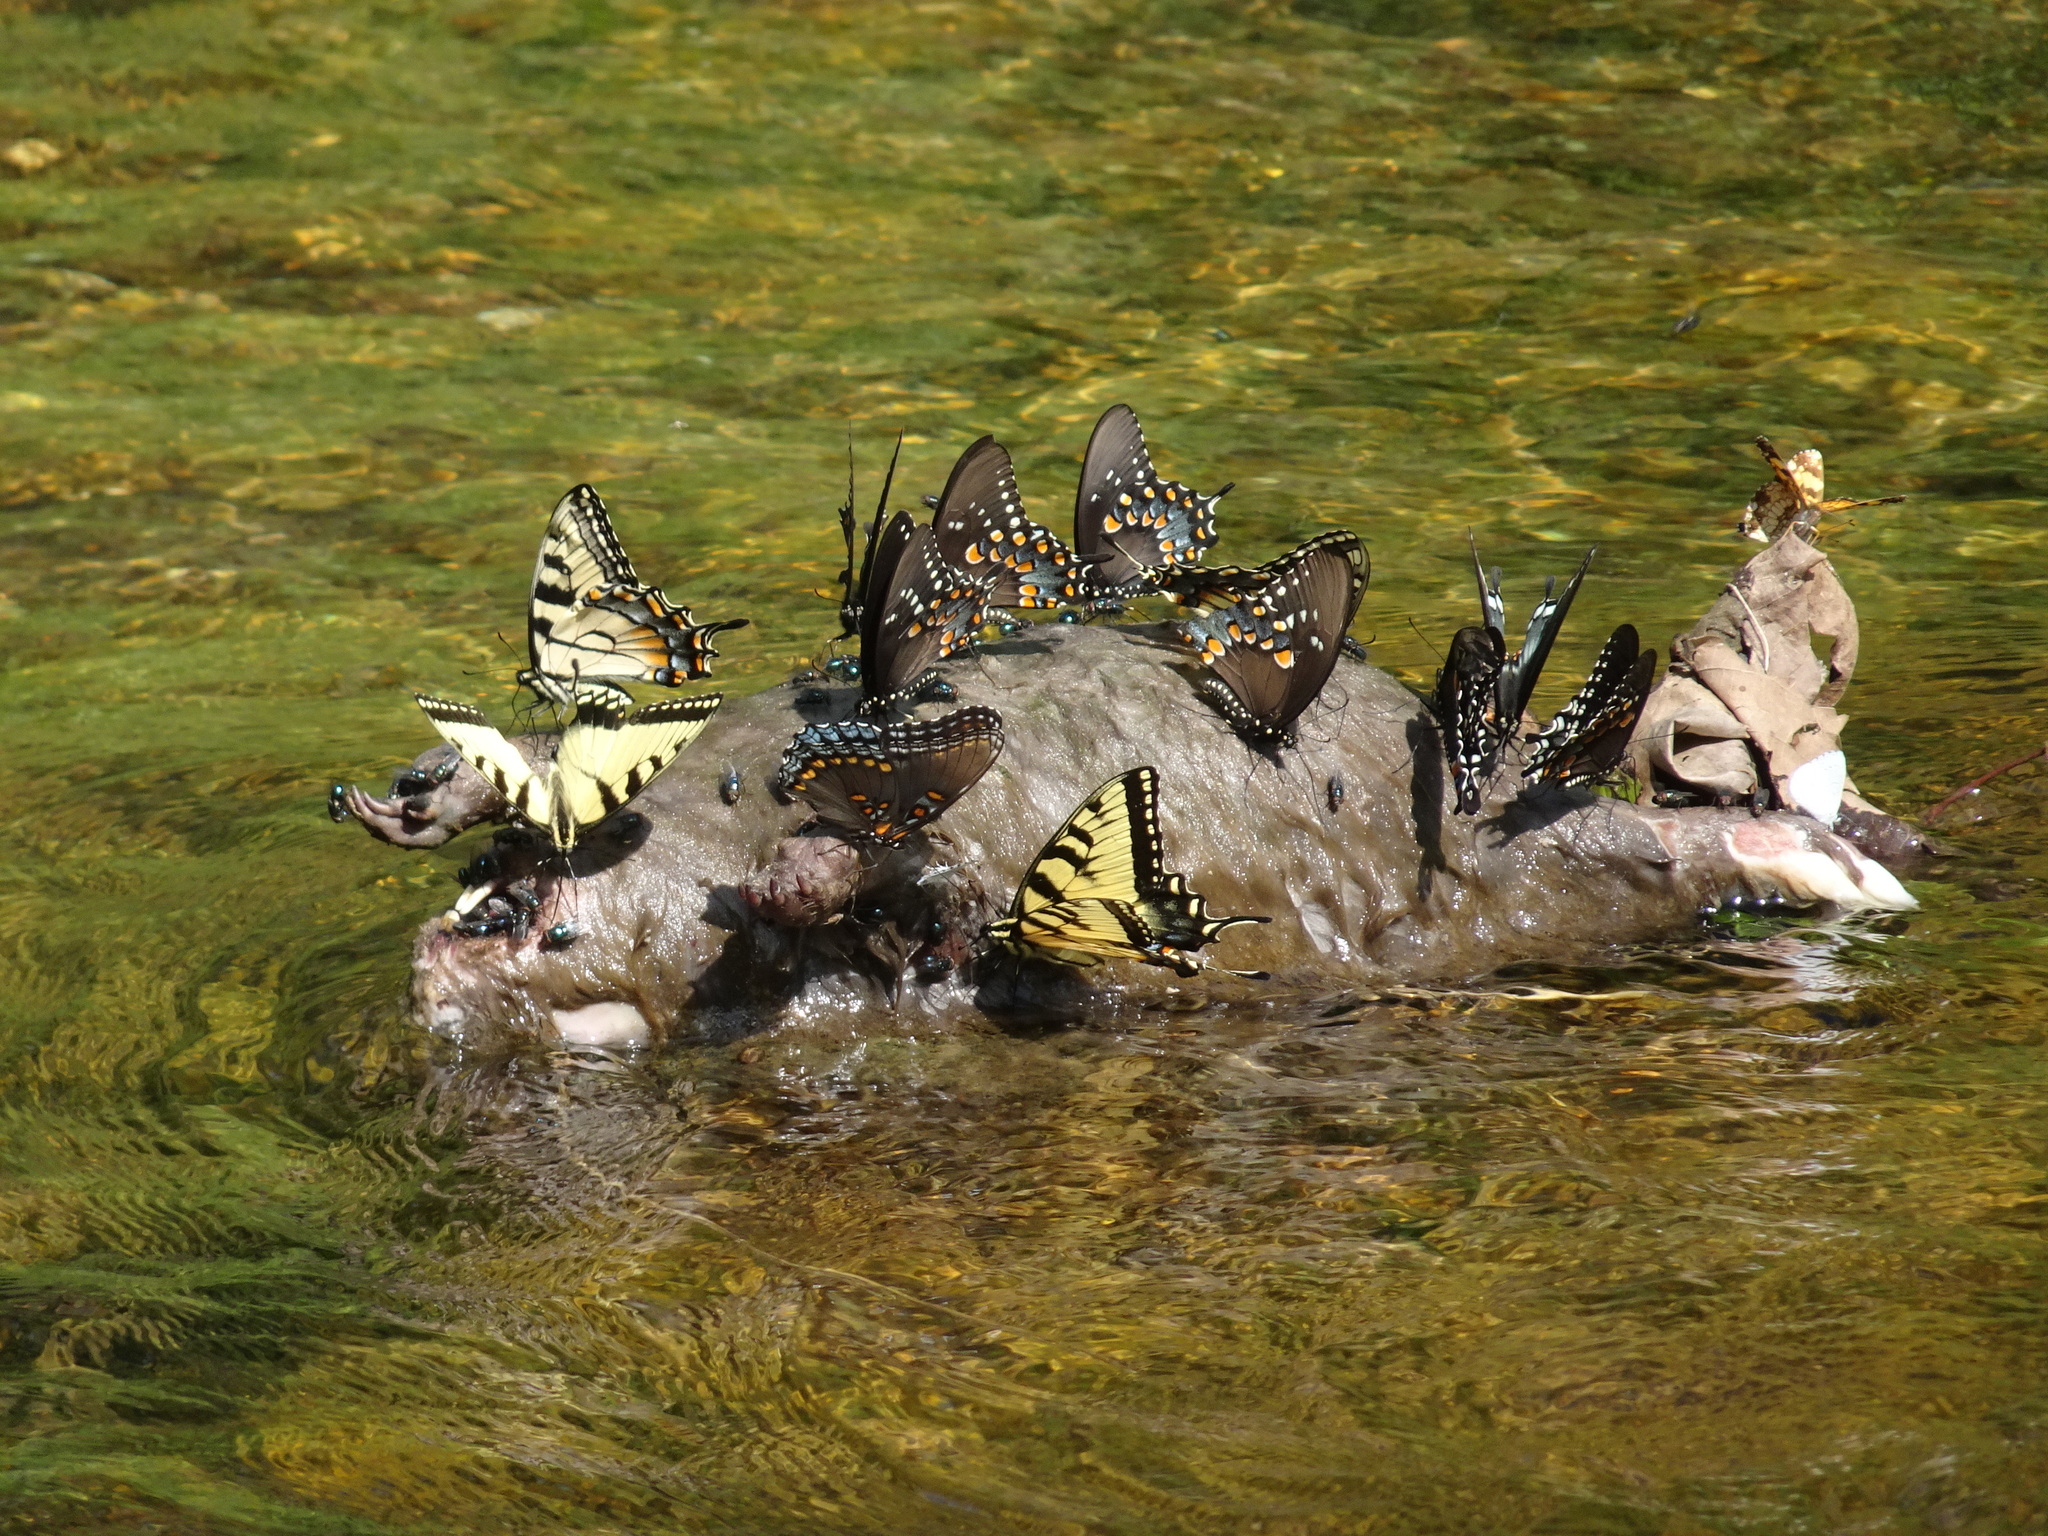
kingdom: Animalia
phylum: Chordata
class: Mammalia
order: Rodentia
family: Cricetidae
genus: Ondatra
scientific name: Ondatra zibethicus
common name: Muskrat
